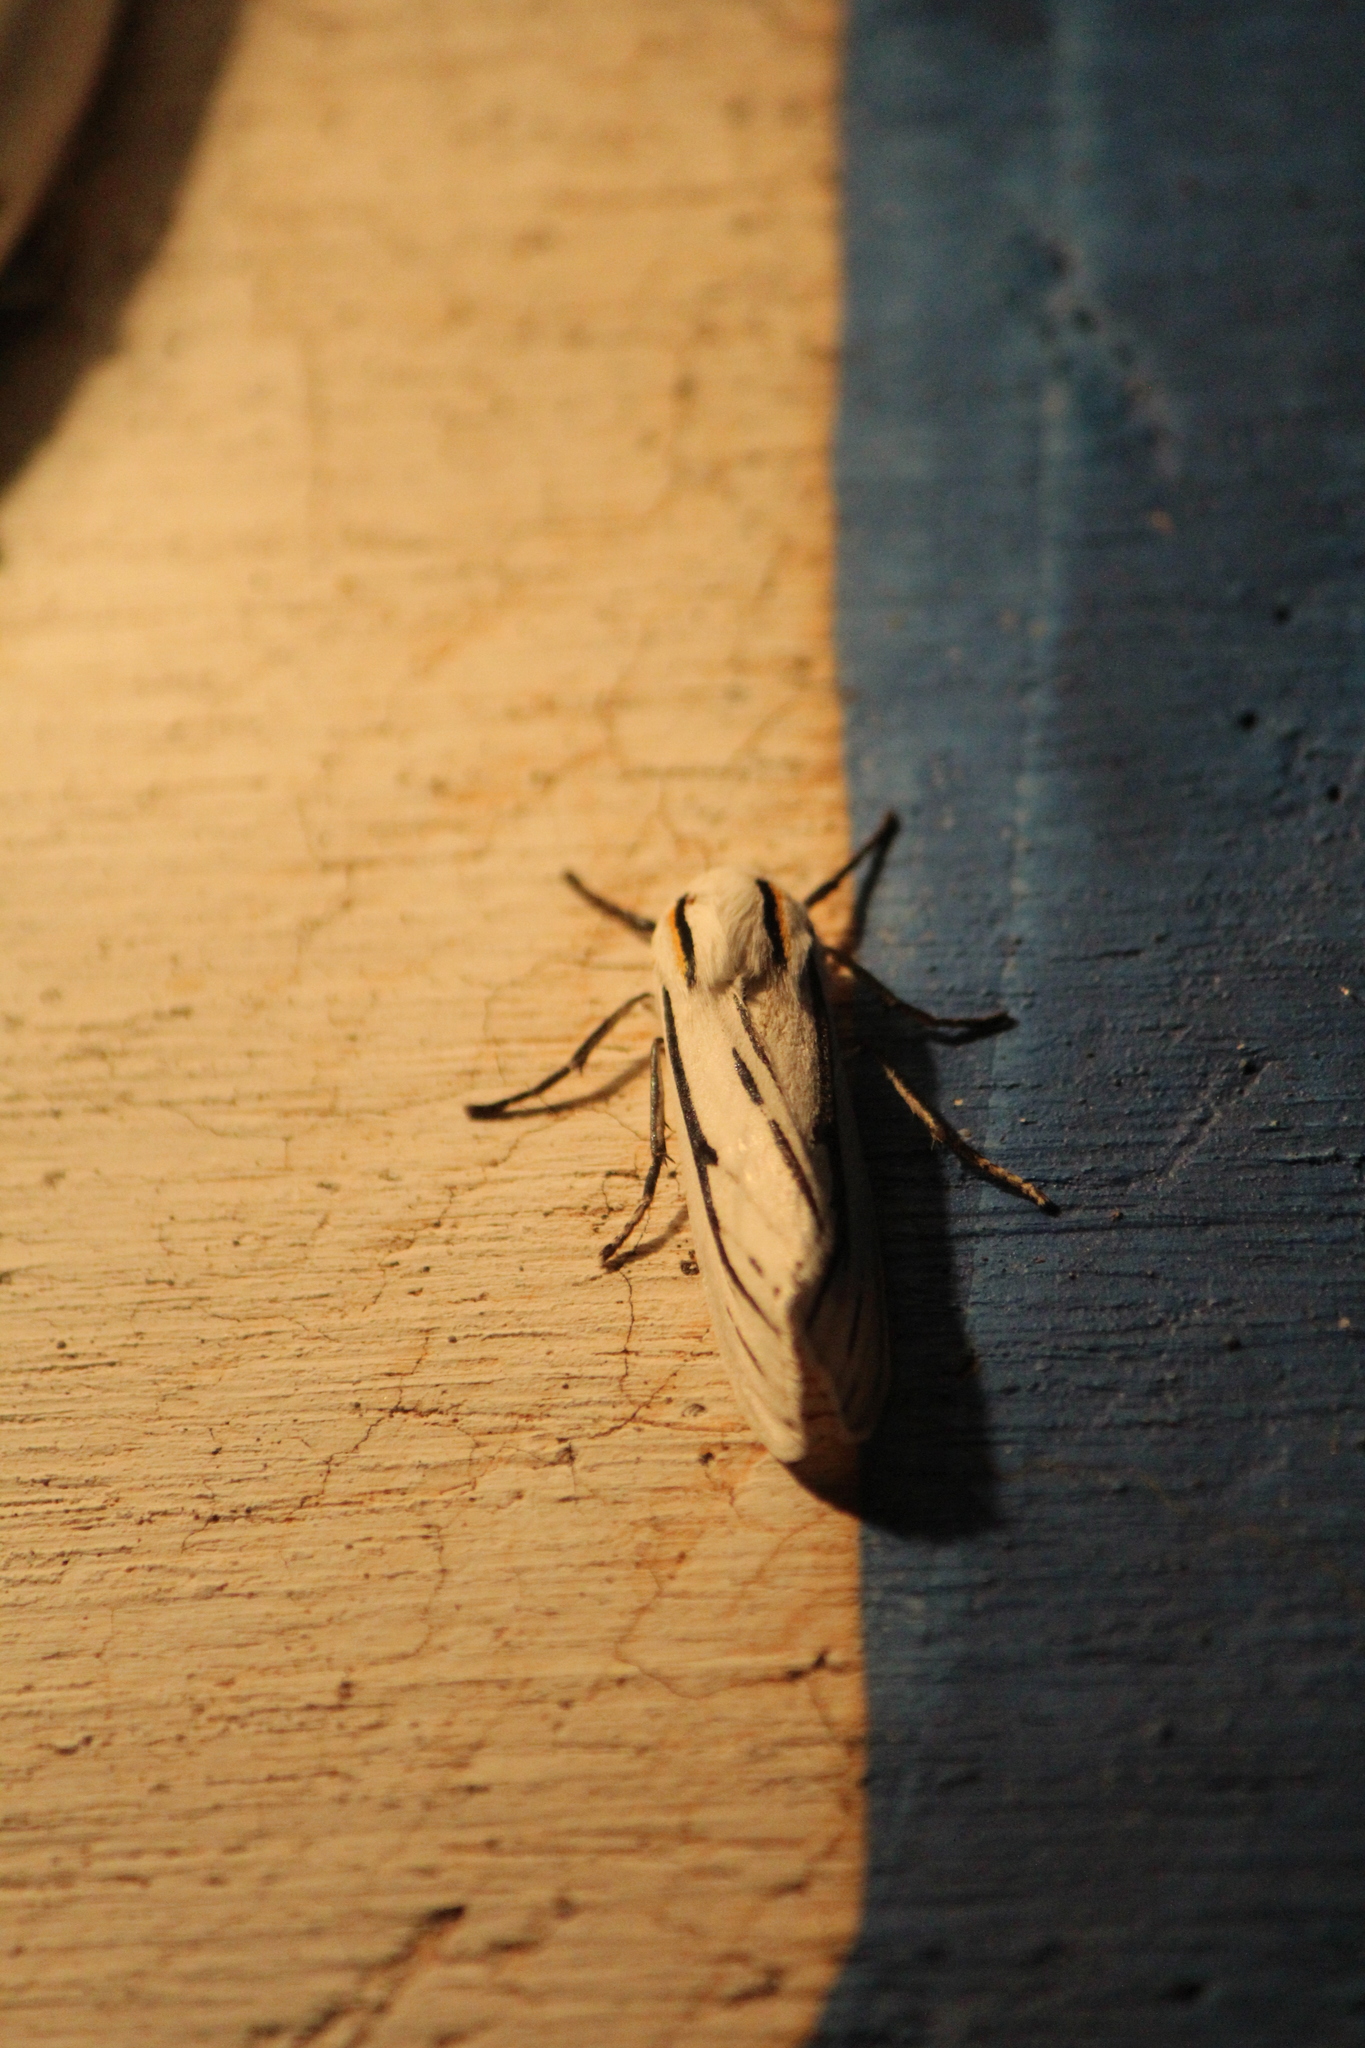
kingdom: Animalia
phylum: Arthropoda
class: Insecta
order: Lepidoptera
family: Erebidae
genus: Ectypia
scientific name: Ectypia clio
